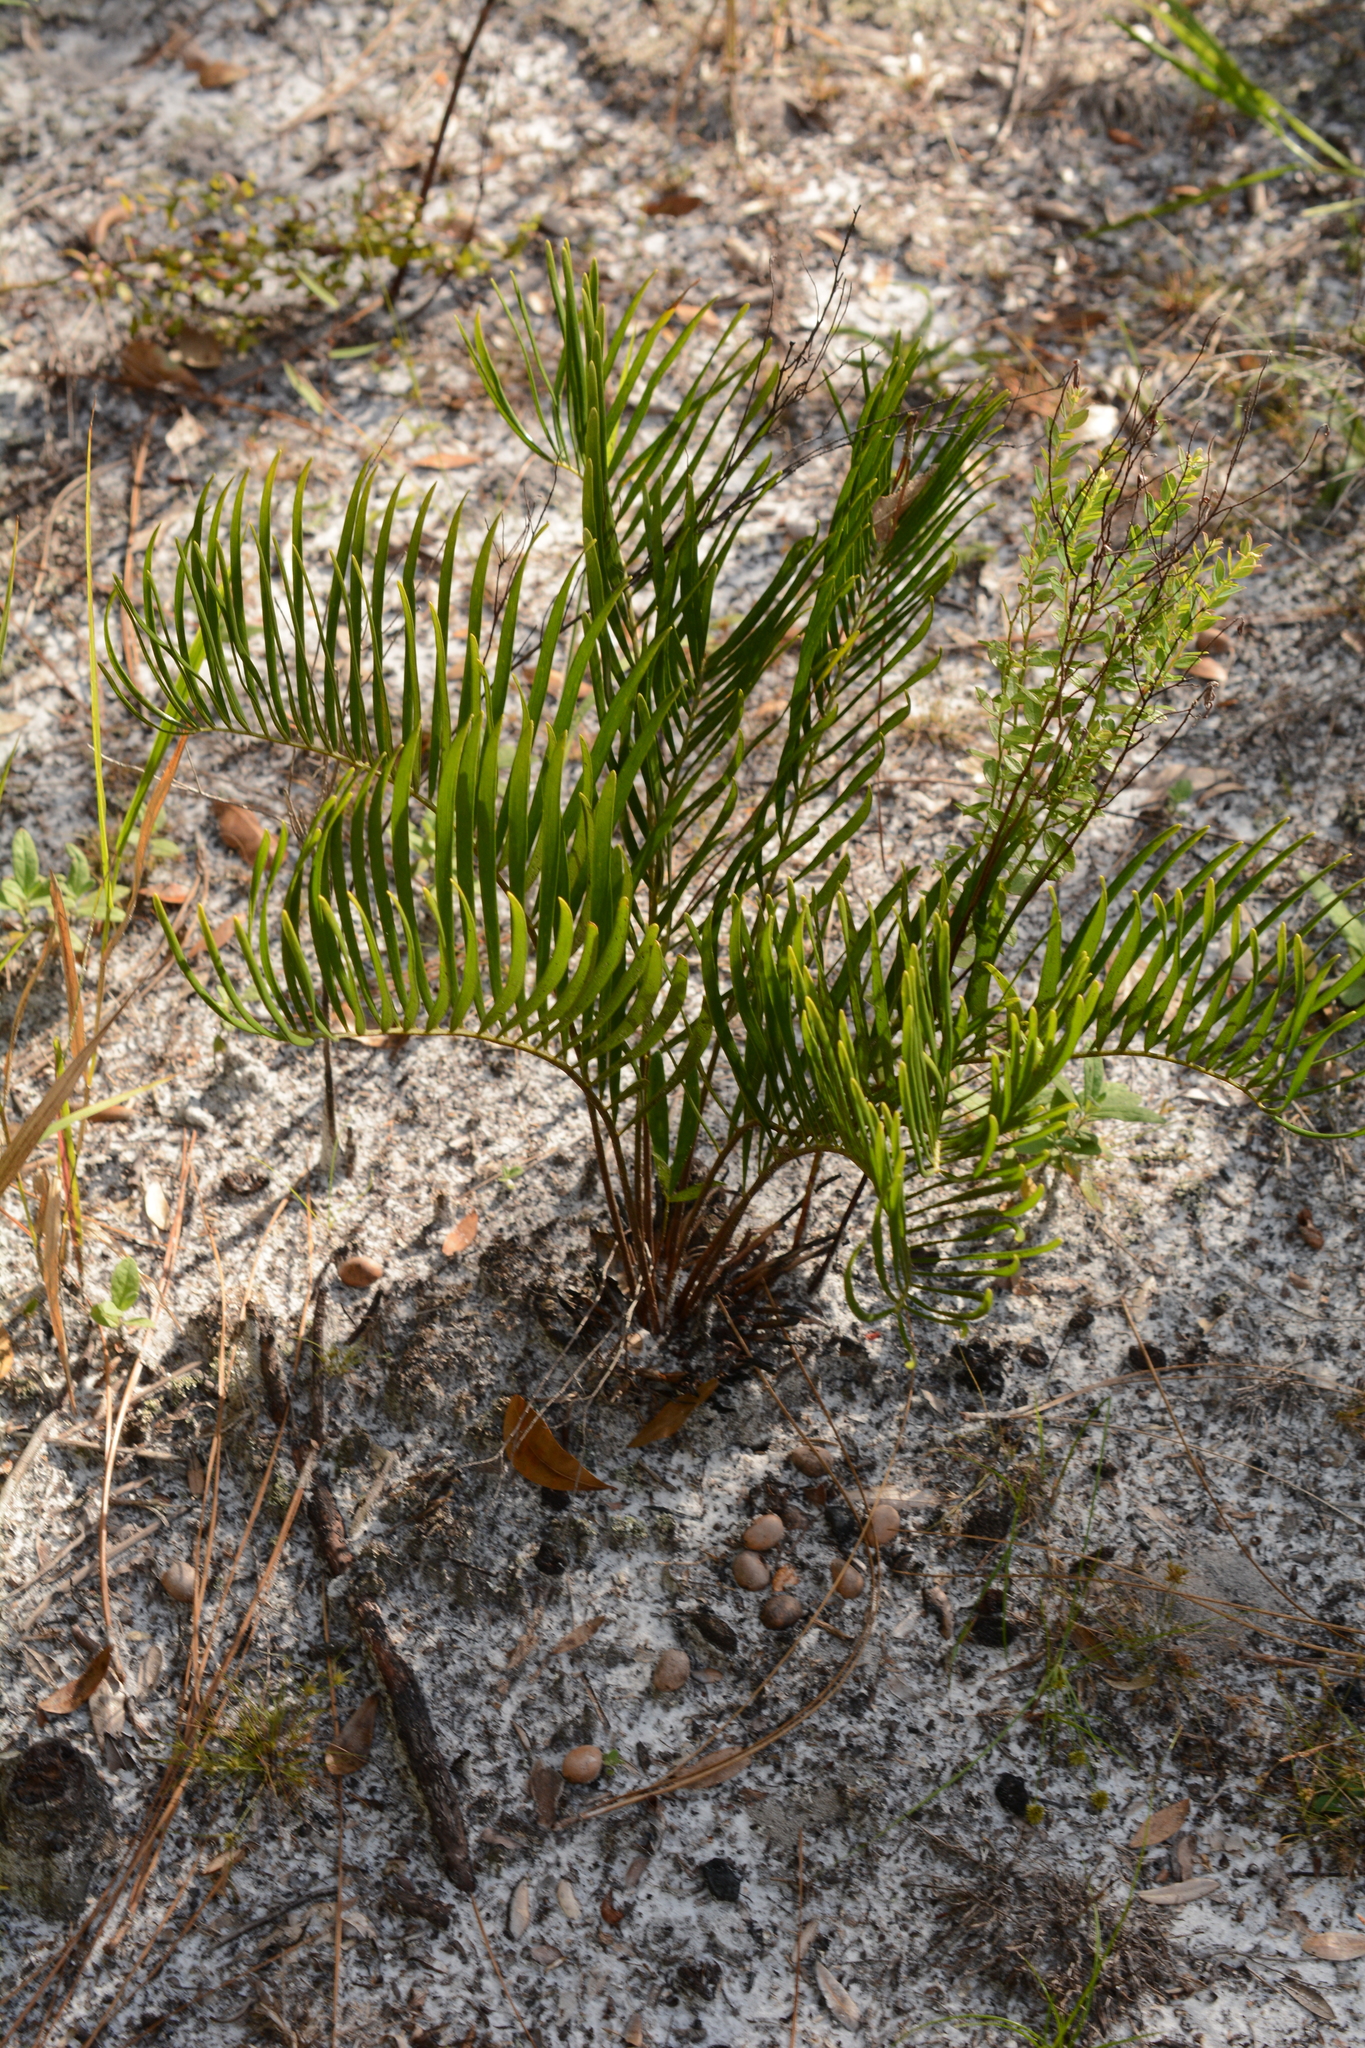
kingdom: Plantae
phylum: Tracheophyta
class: Cycadopsida
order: Cycadales
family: Zamiaceae
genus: Zamia
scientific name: Zamia integrifolia
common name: Florida arrowroot
